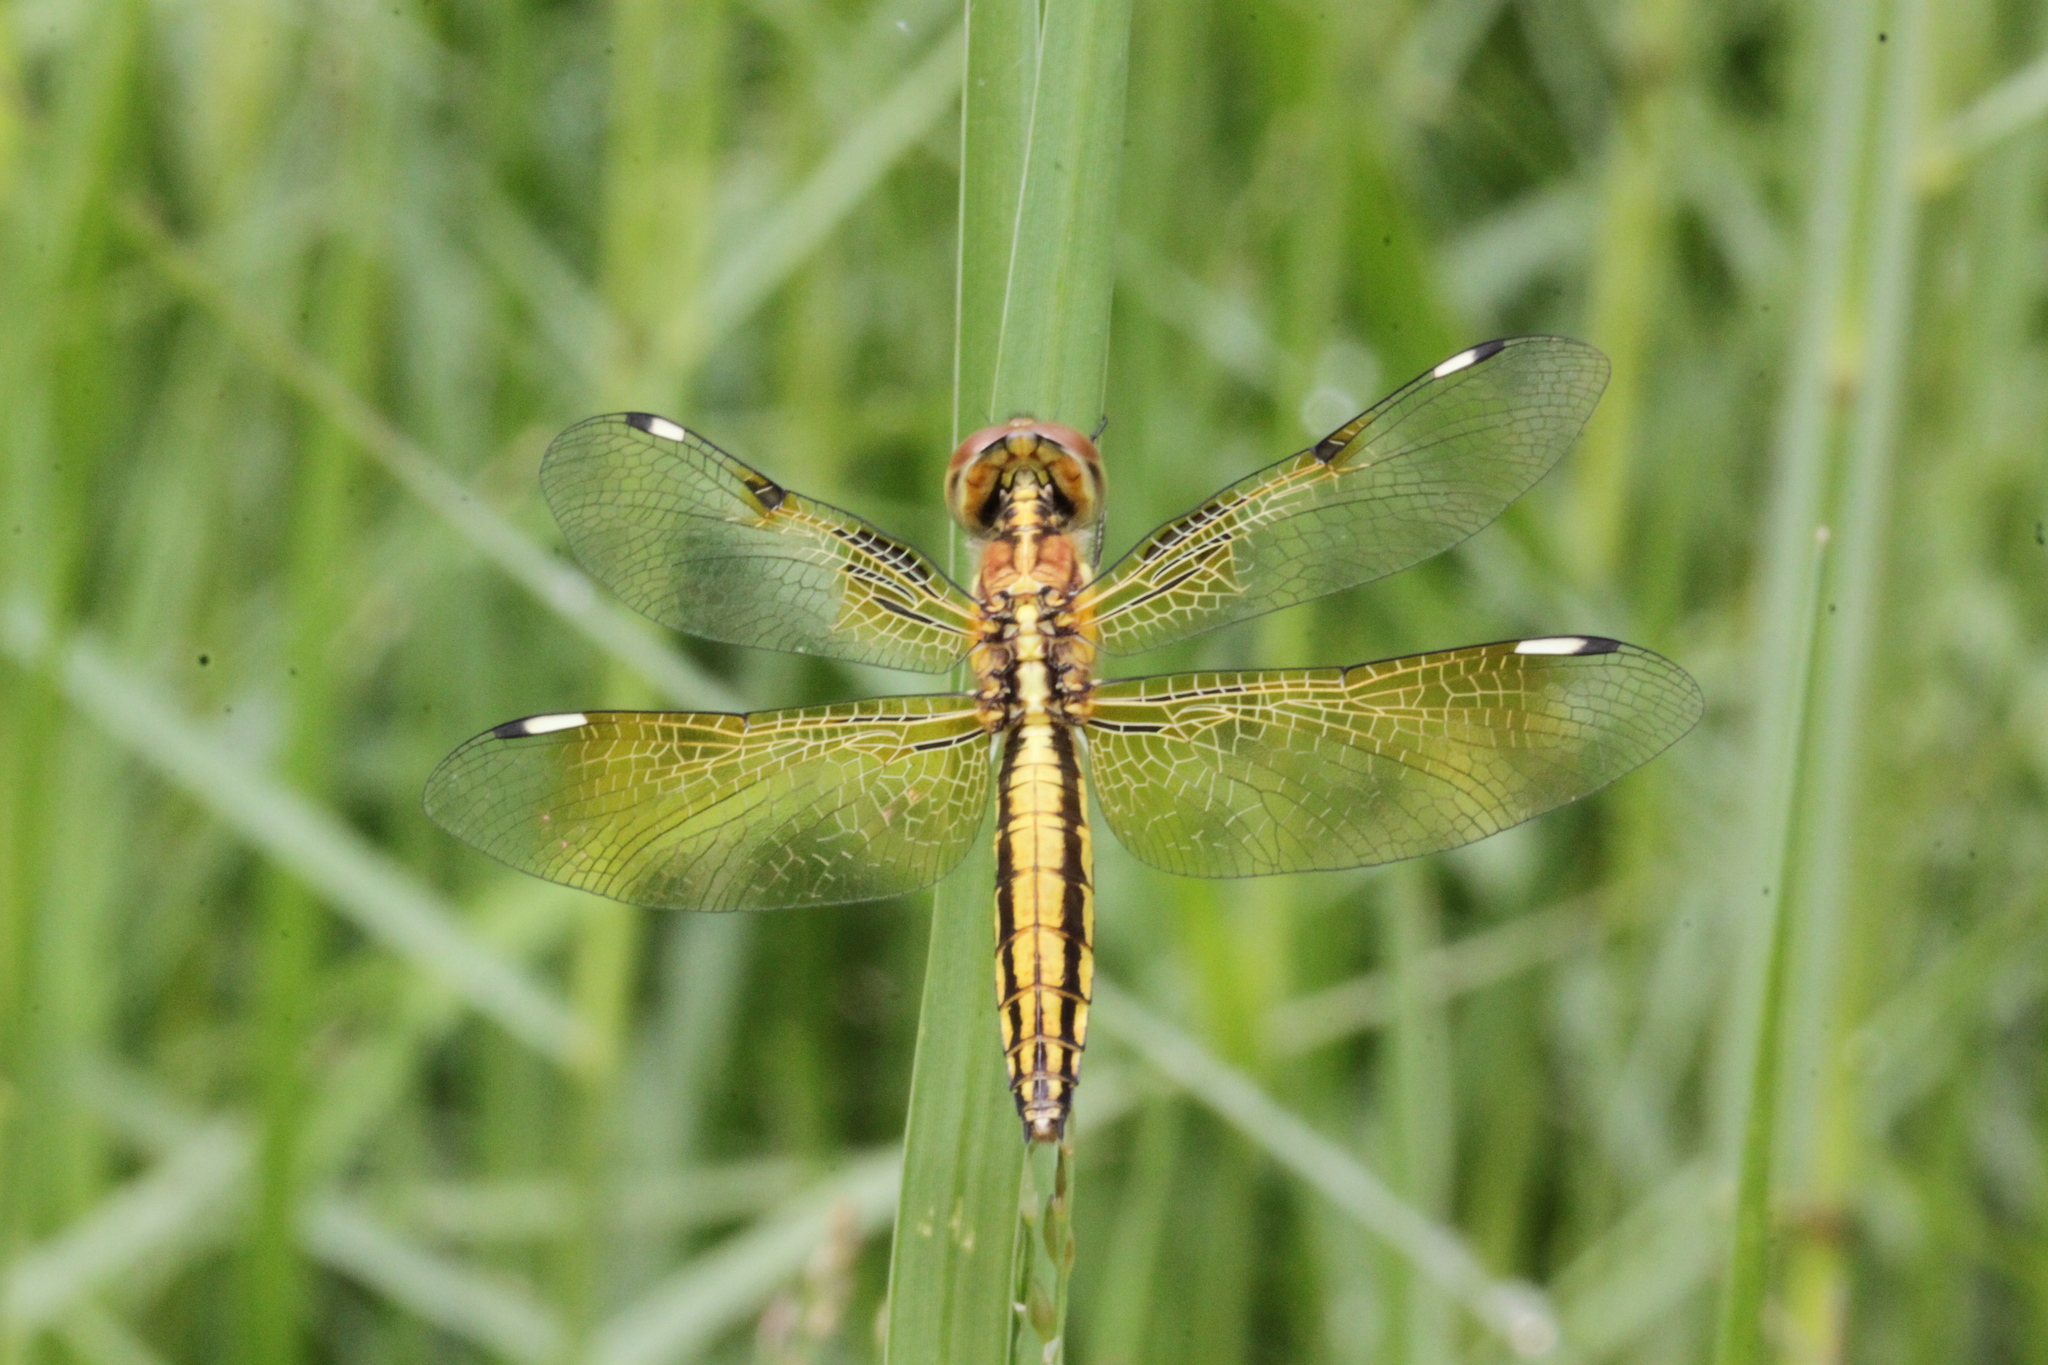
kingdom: Animalia
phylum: Arthropoda
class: Insecta
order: Odonata
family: Libellulidae
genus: Palpopleura
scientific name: Palpopleura sexmaculata
